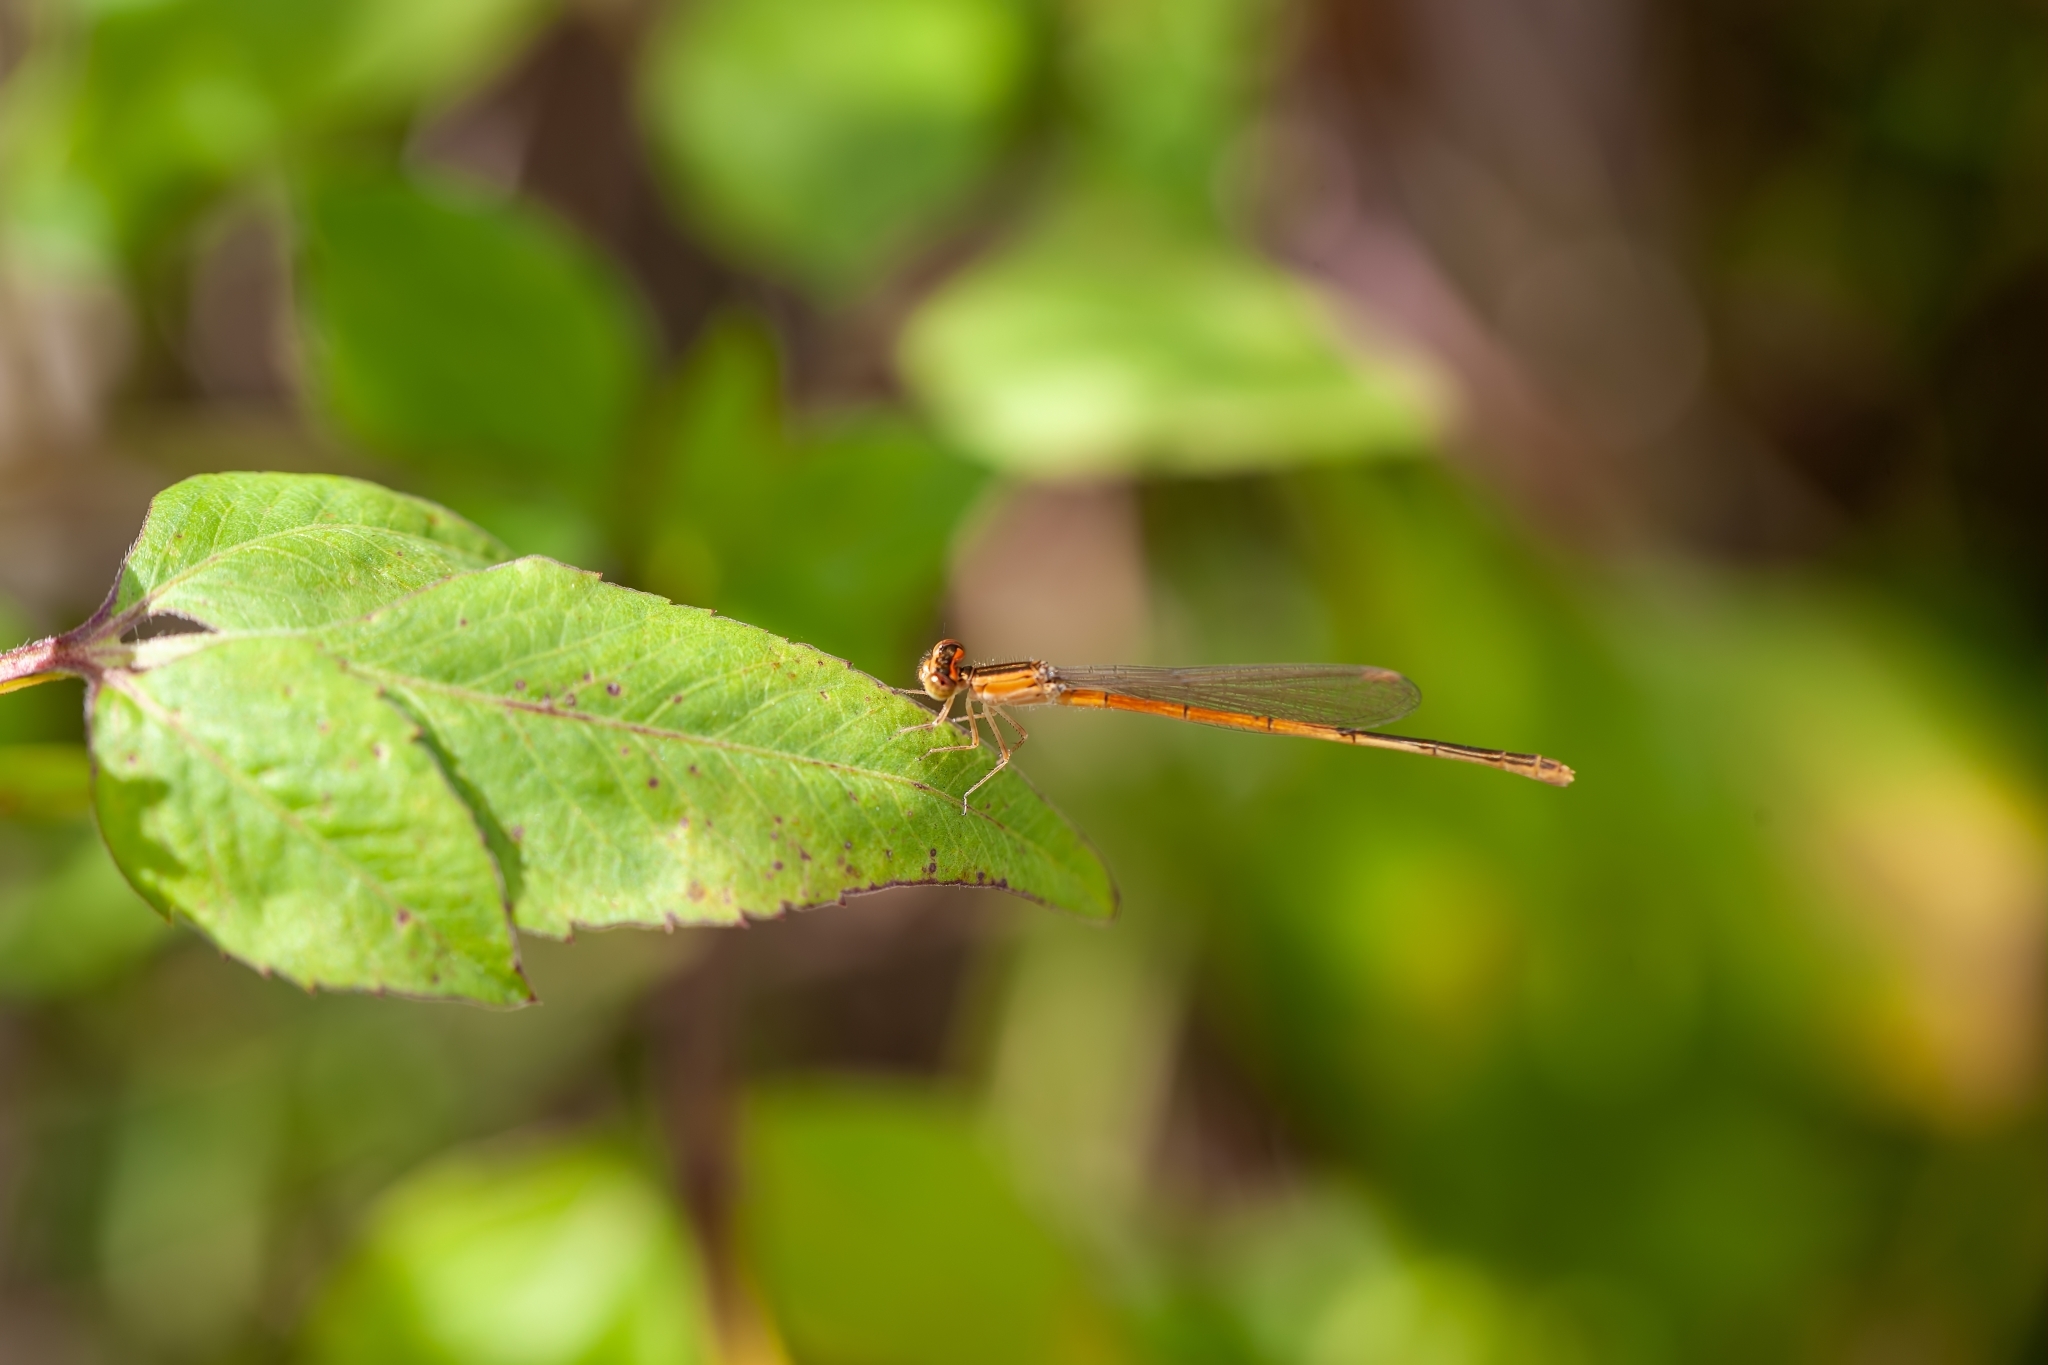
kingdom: Animalia
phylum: Arthropoda
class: Insecta
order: Odonata
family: Coenagrionidae
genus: Ischnura
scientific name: Ischnura hastata
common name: Citrine forktail
